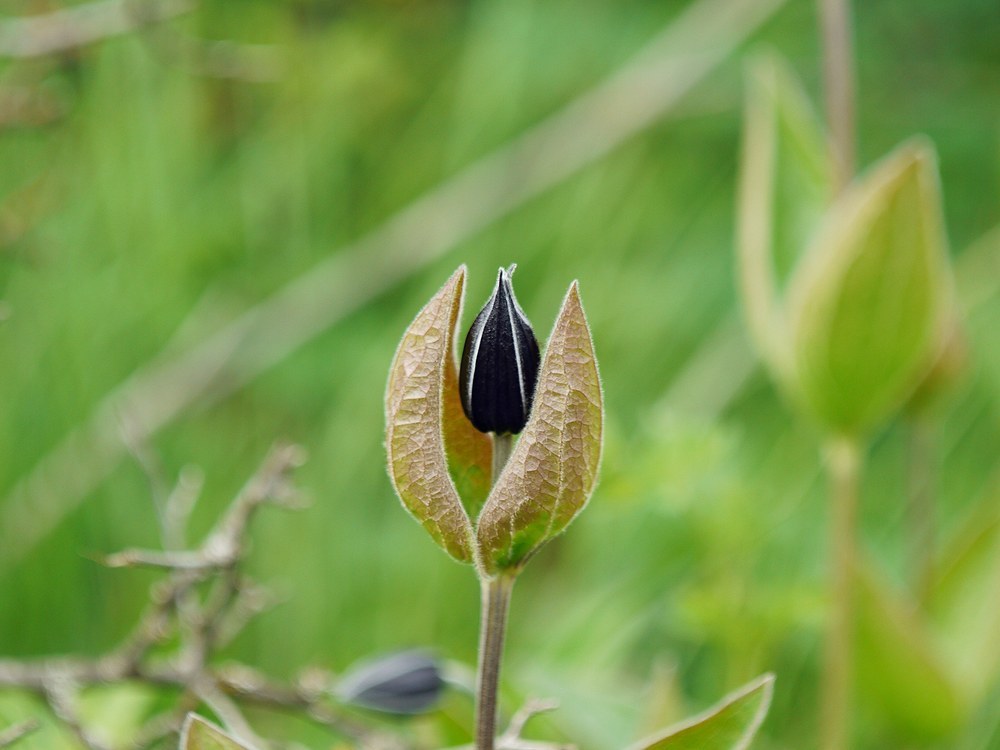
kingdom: Plantae
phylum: Tracheophyta
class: Magnoliopsida
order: Ranunculales
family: Ranunculaceae
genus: Clematis
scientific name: Clematis integrifolia
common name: Solitary clematis
